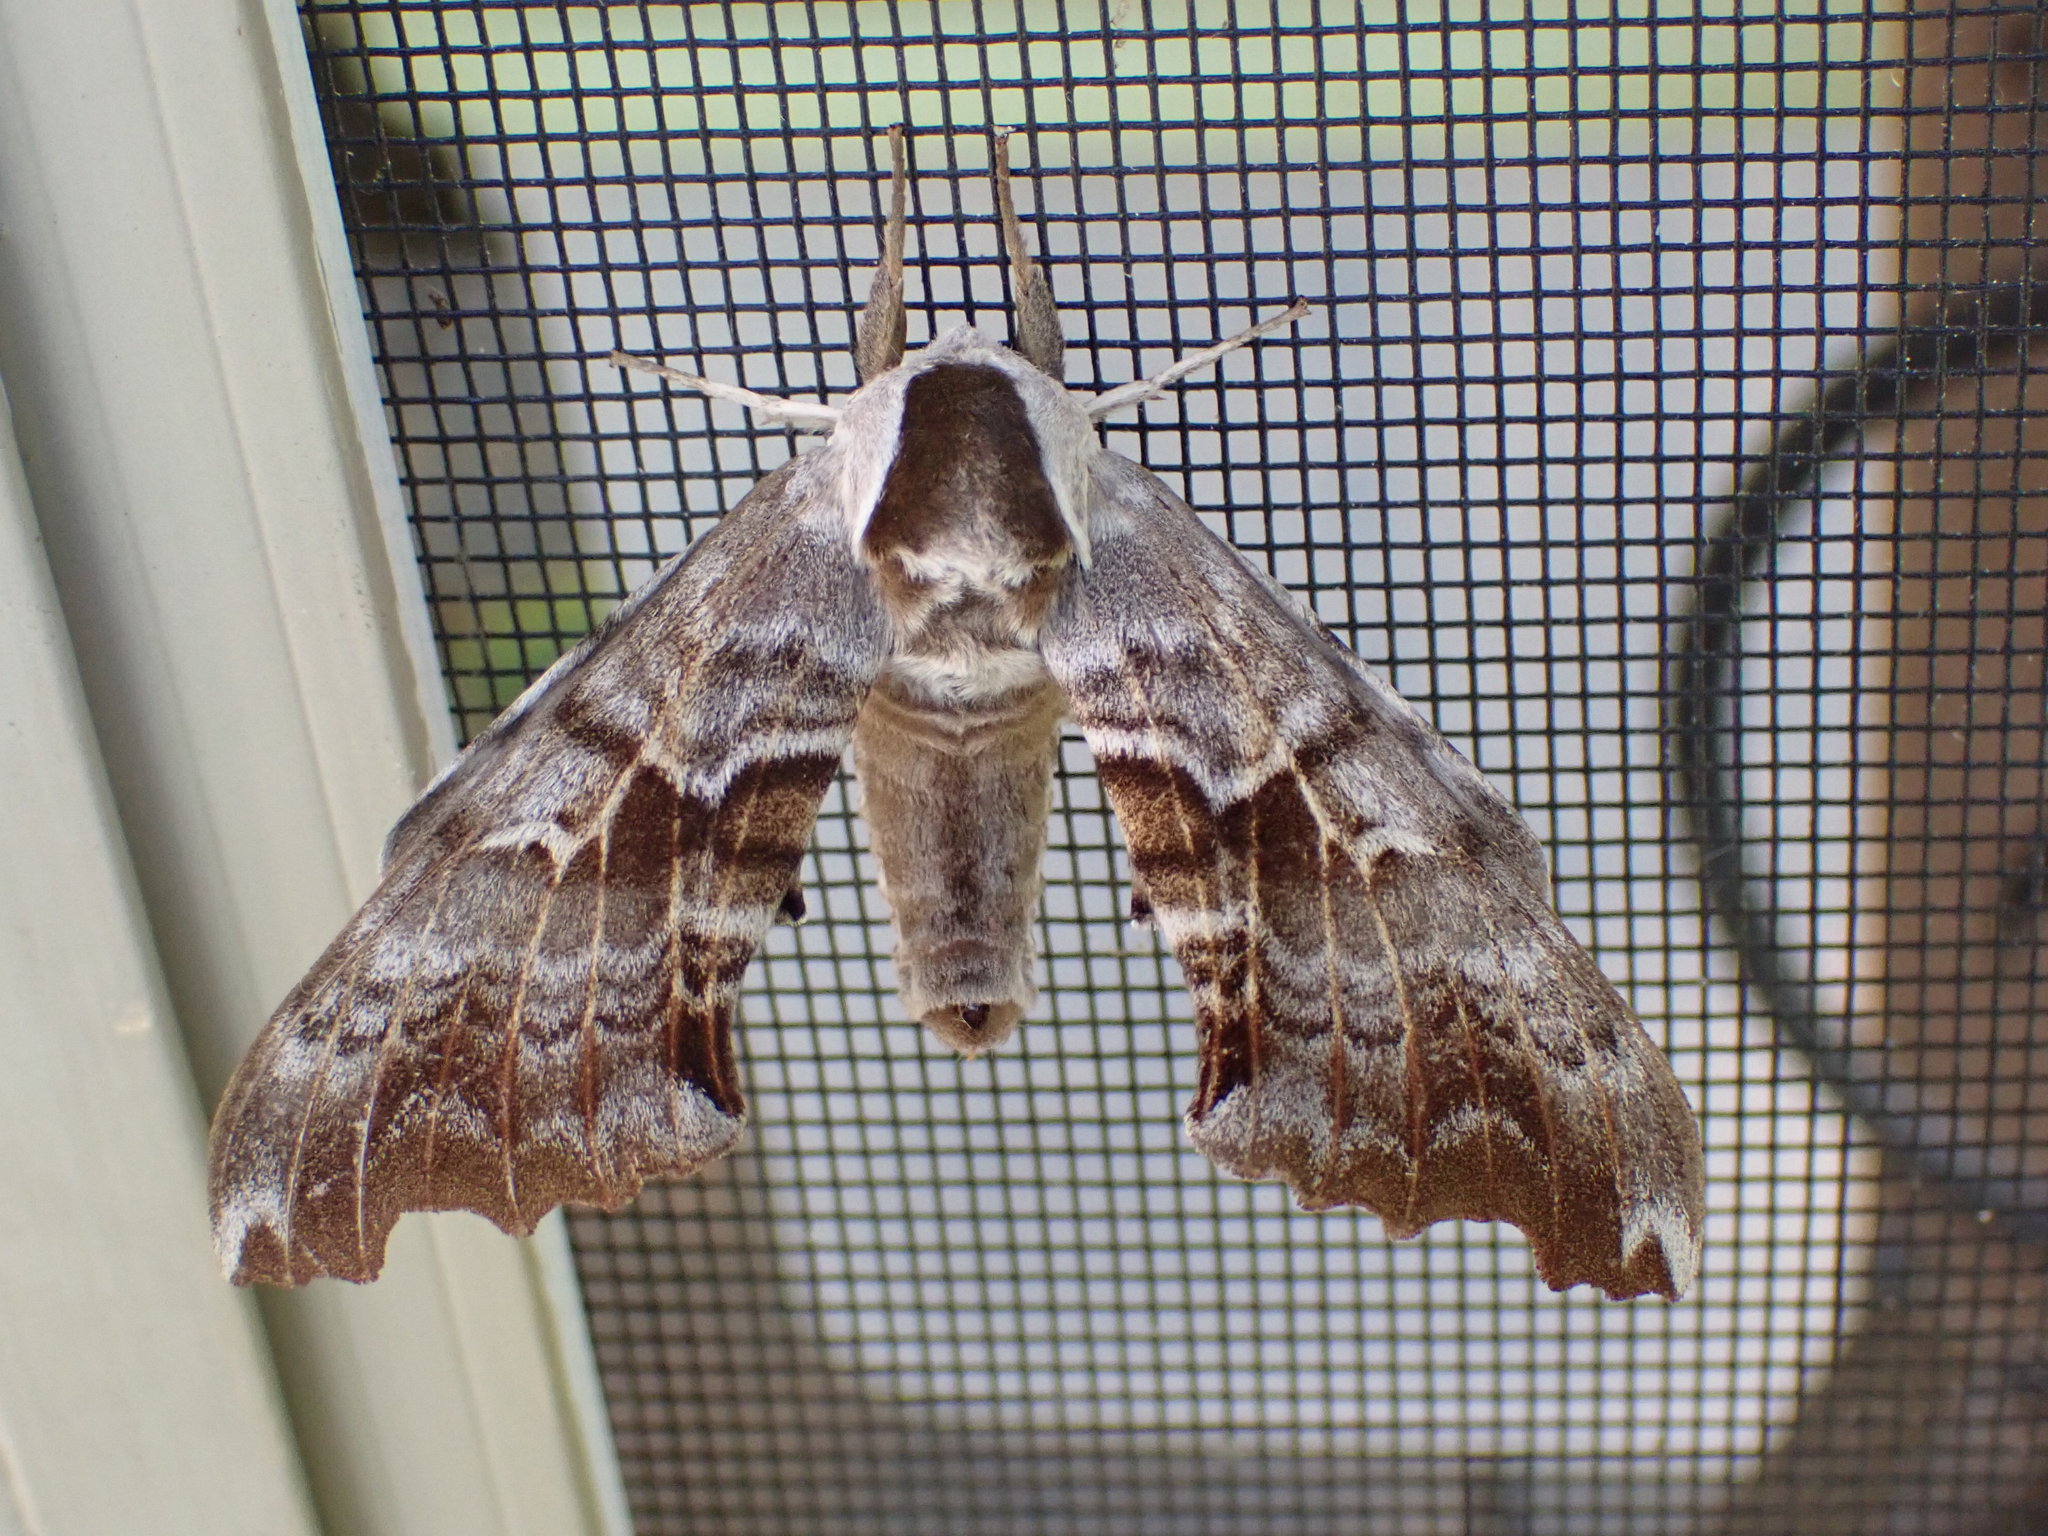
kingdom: Animalia
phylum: Arthropoda
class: Insecta
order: Lepidoptera
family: Sphingidae
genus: Smerinthus
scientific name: Smerinthus cerisyi
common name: Cerisy's sphinx moth
